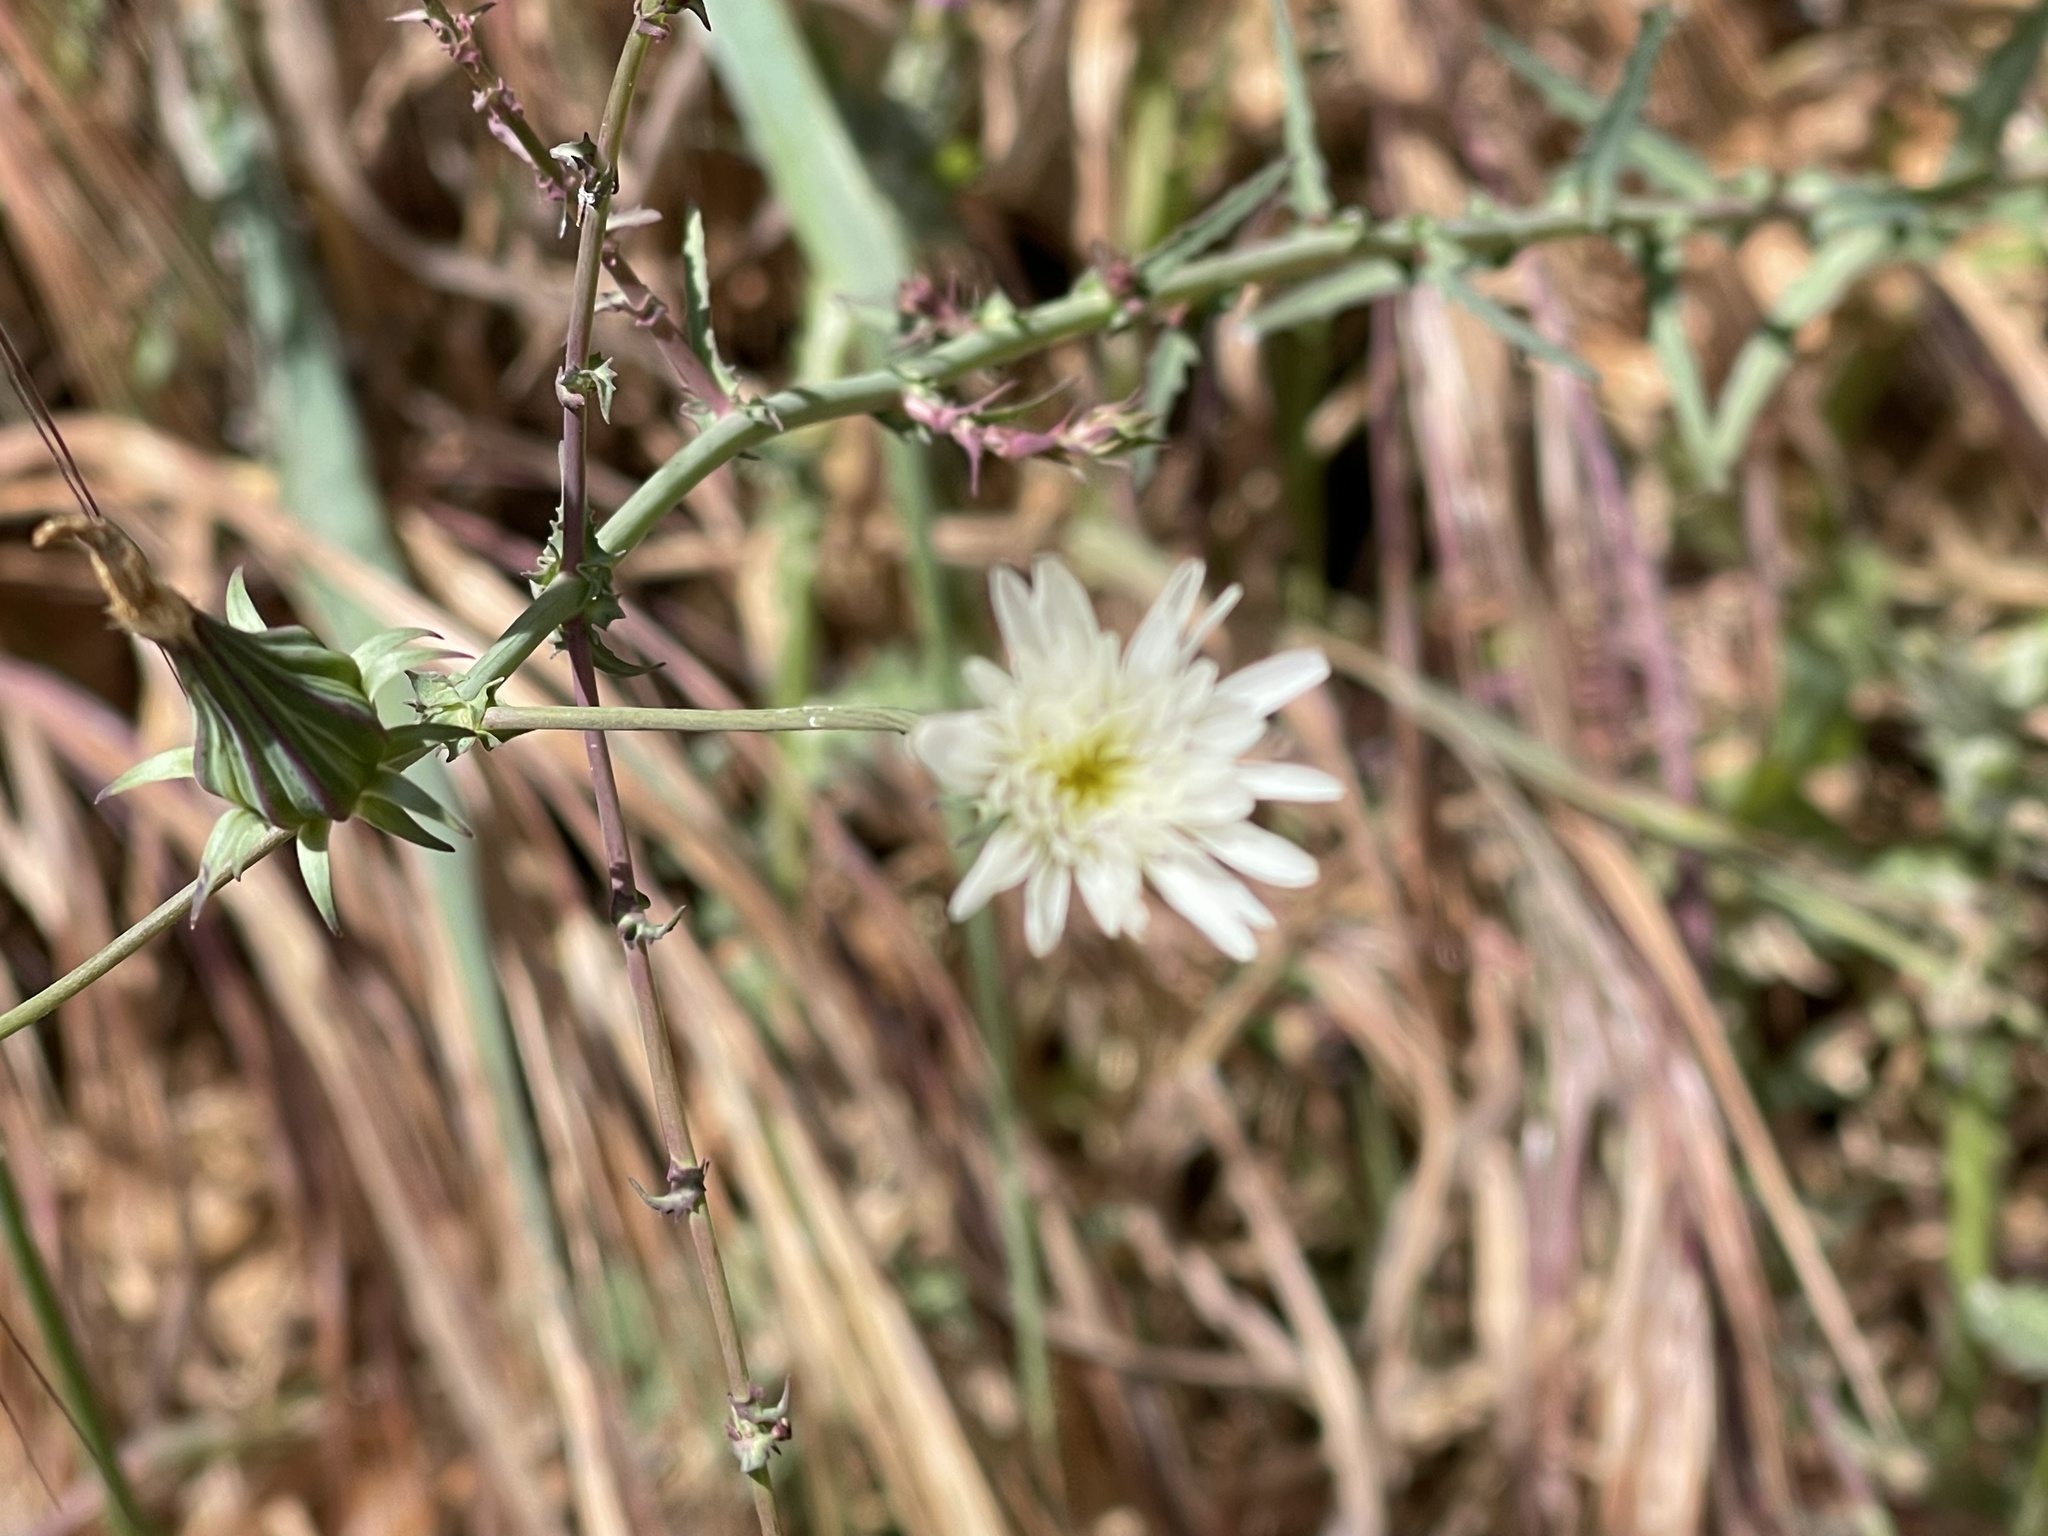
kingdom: Plantae
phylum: Tracheophyta
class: Magnoliopsida
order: Asterales
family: Asteraceae
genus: Rafinesquia
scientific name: Rafinesquia californica
